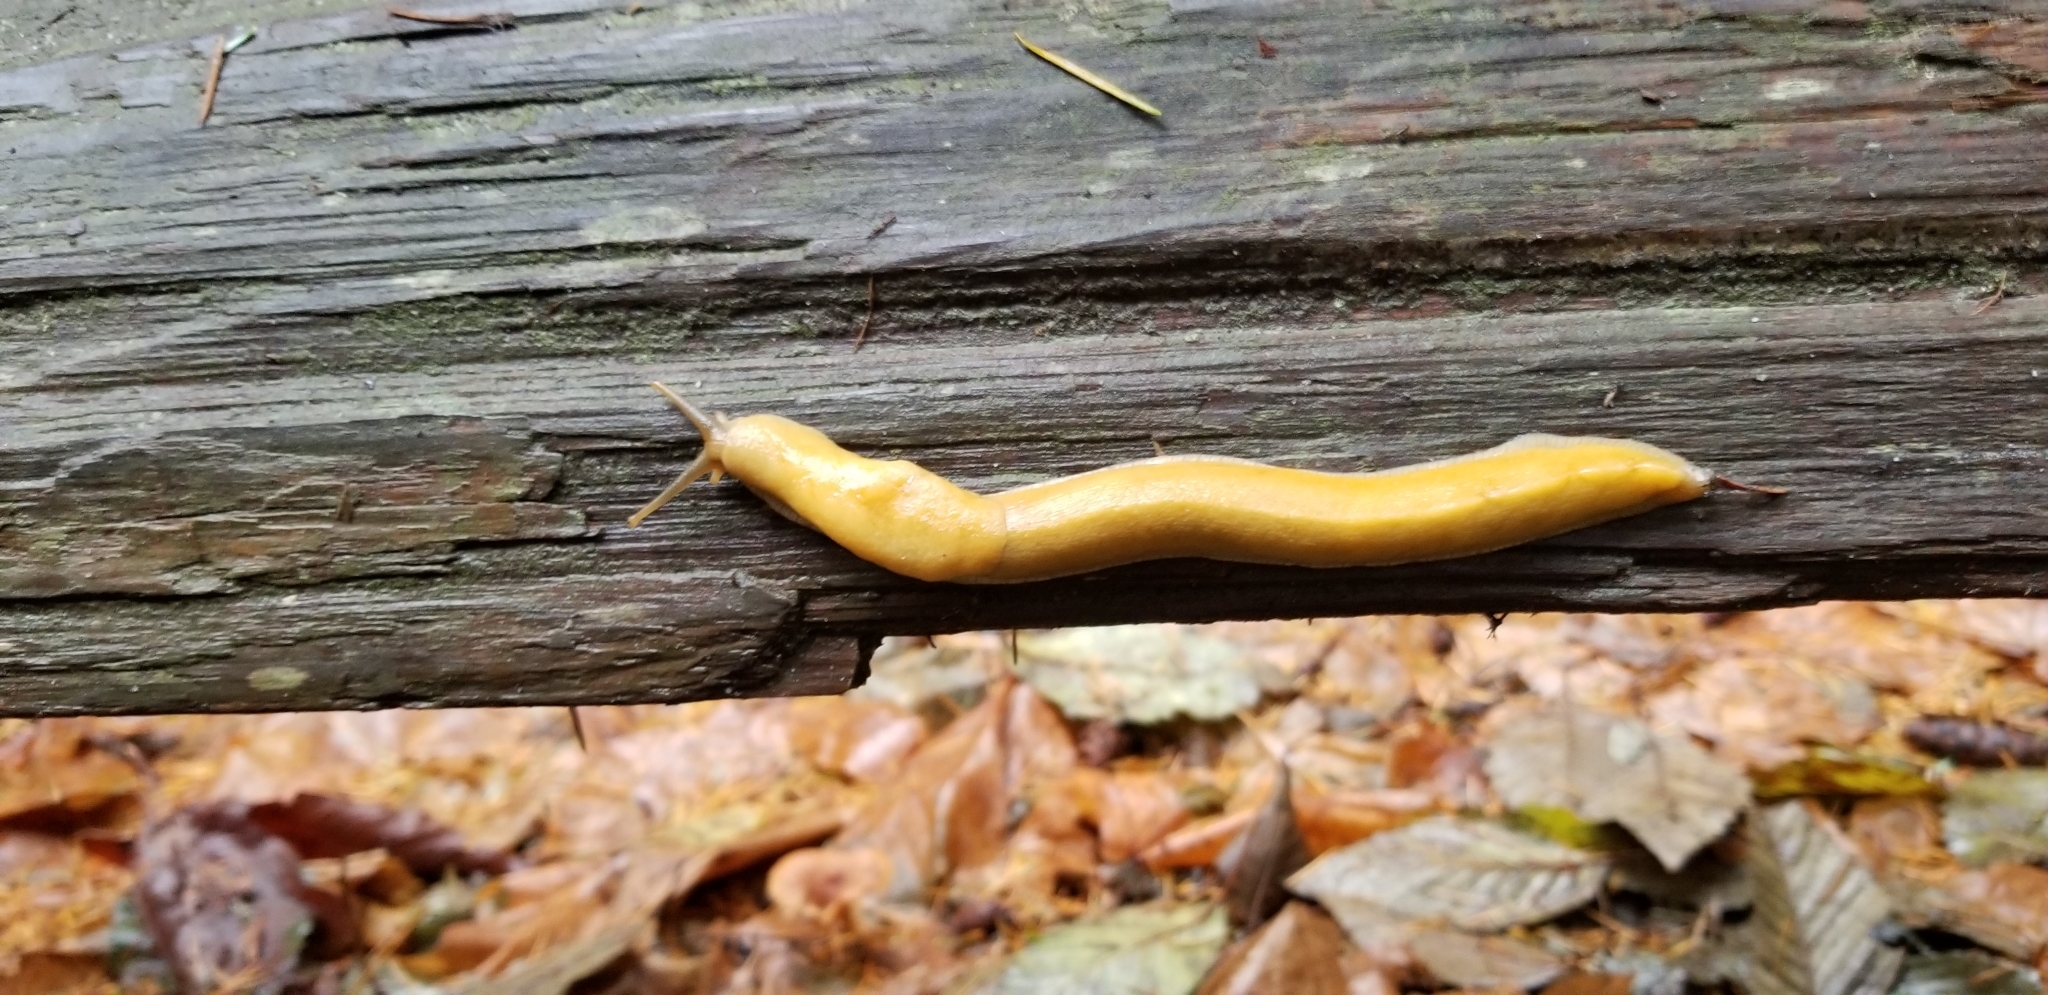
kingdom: Animalia
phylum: Mollusca
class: Gastropoda
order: Stylommatophora
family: Ariolimacidae
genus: Ariolimax
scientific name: Ariolimax columbianus
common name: Pacific banana slug
